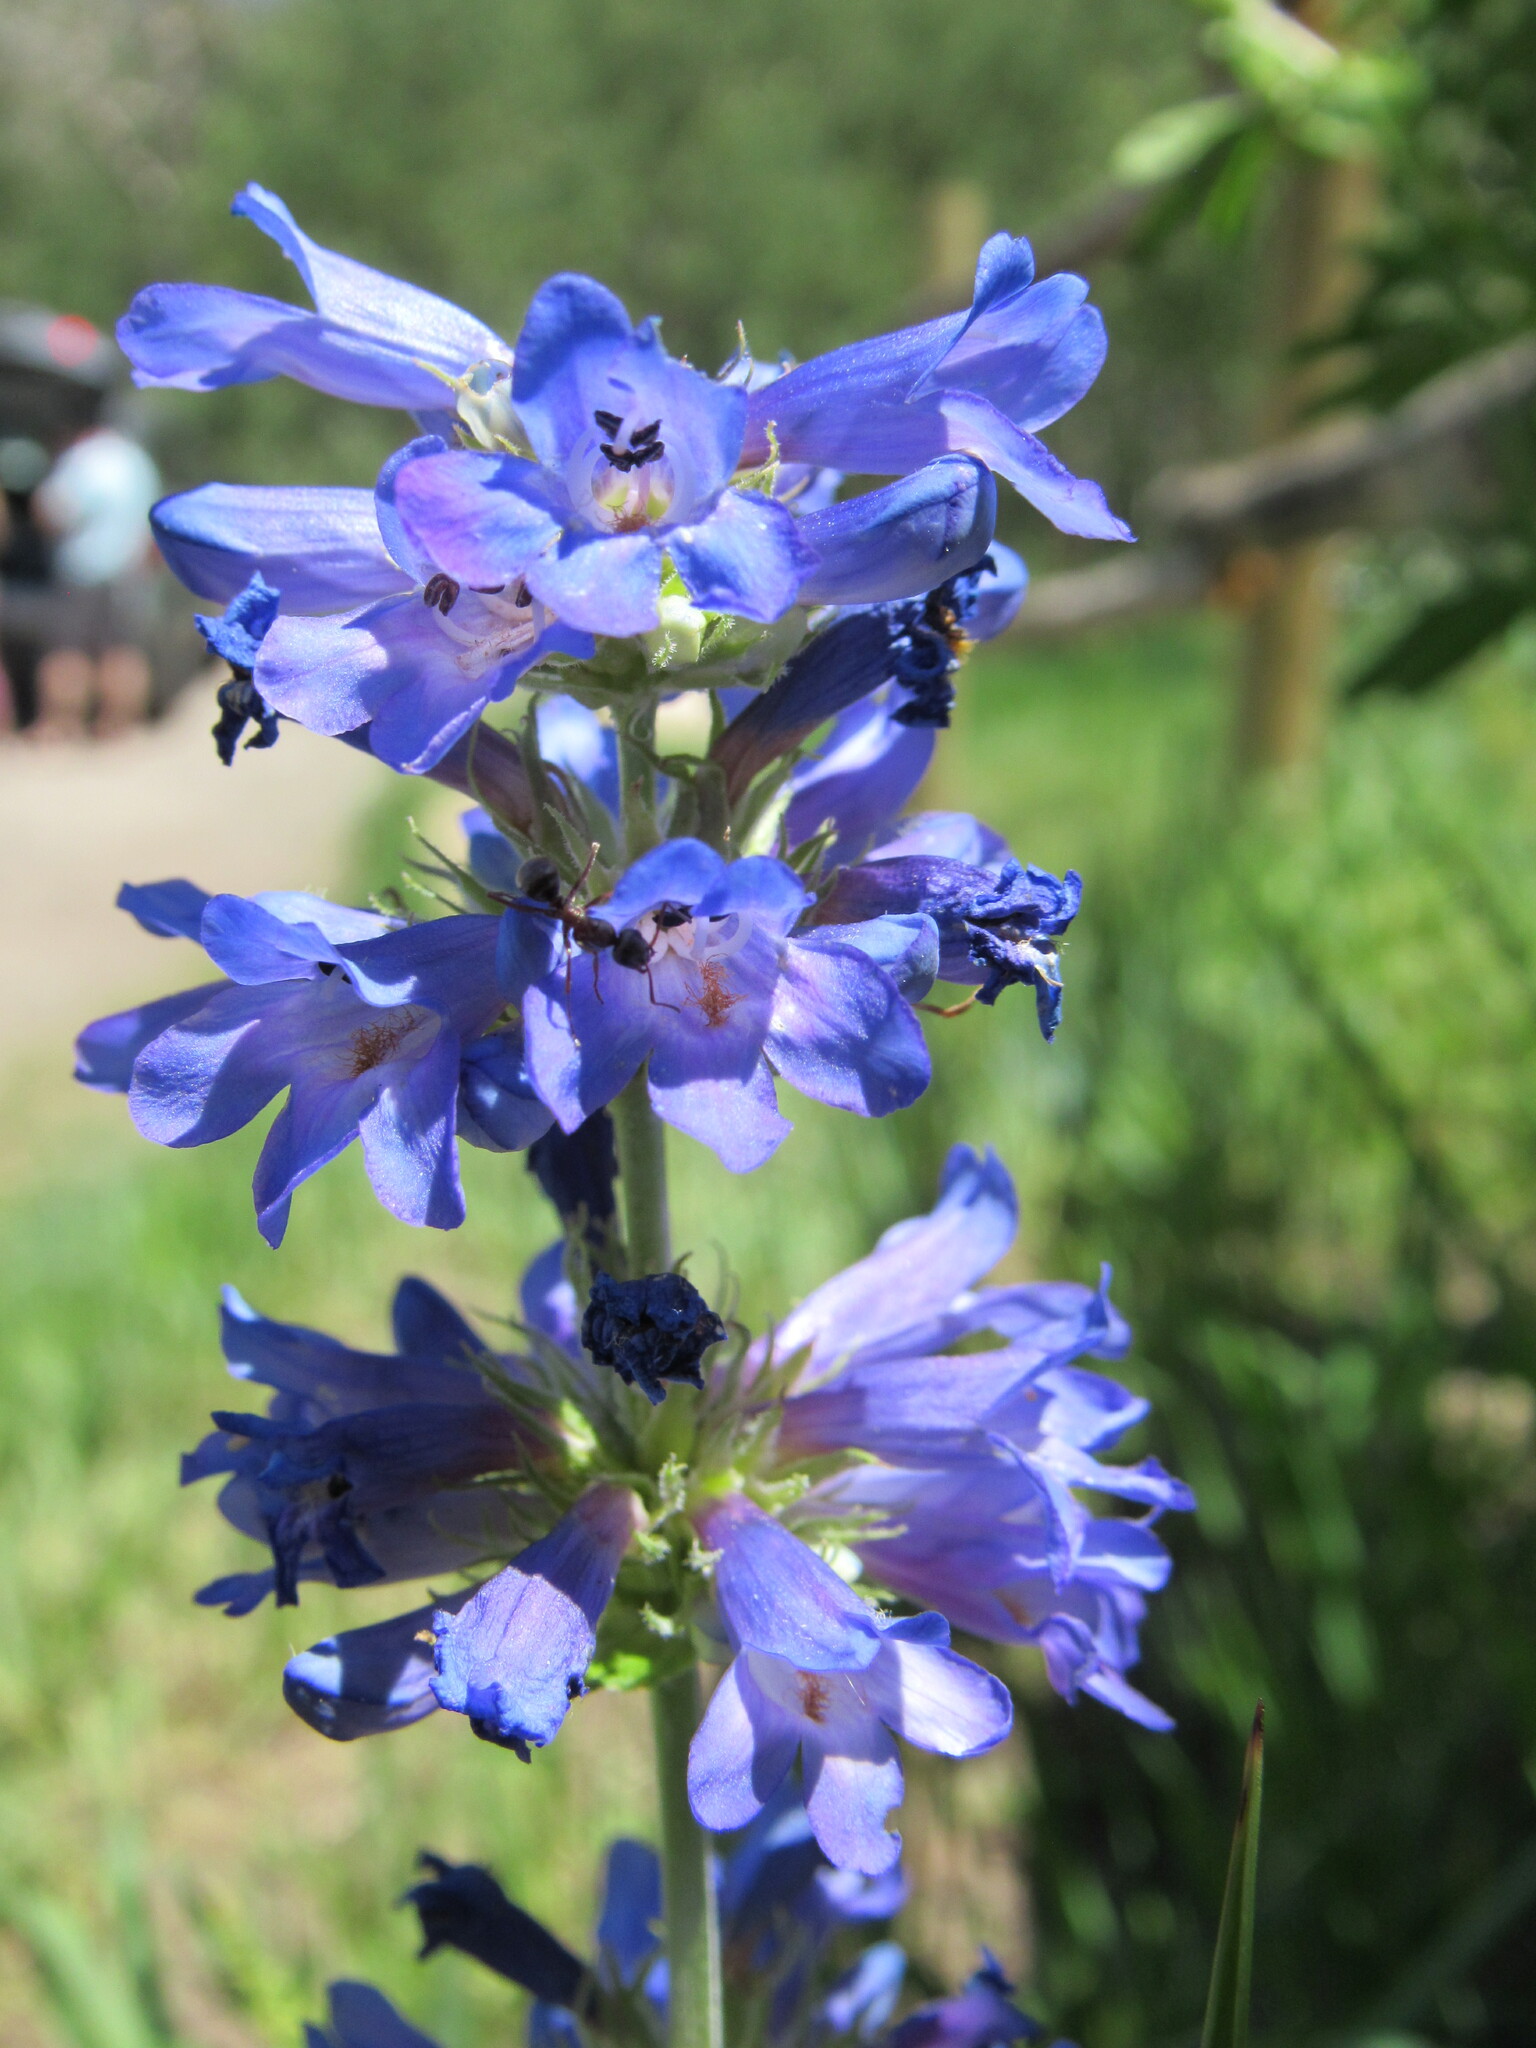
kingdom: Plantae
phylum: Tracheophyta
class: Magnoliopsida
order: Lamiales
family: Plantaginaceae
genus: Penstemon
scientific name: Penstemon rydbergii
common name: Rydberg's beardtongue
